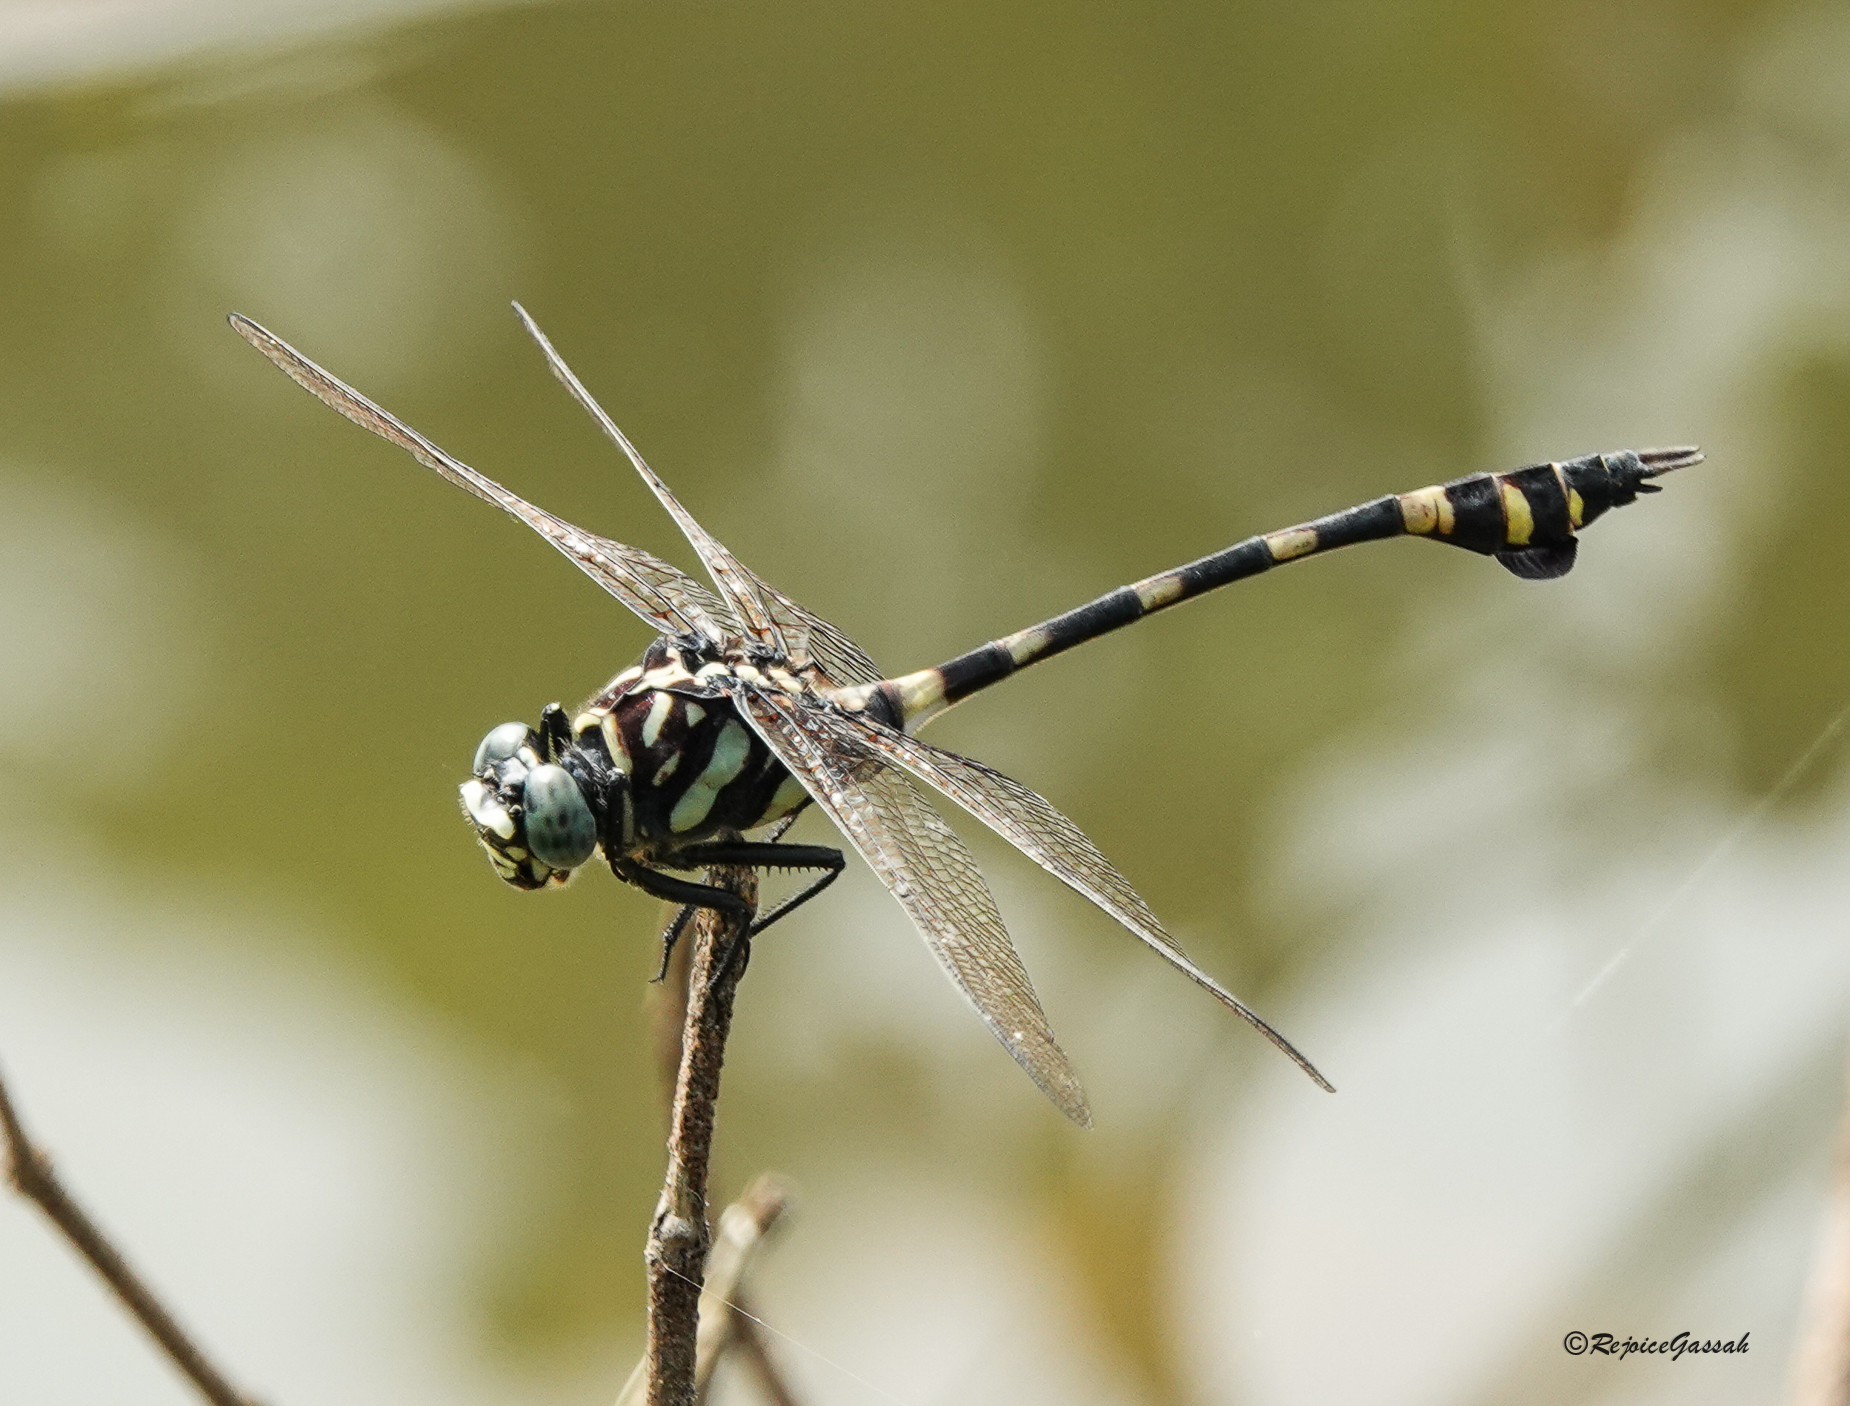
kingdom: Animalia
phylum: Arthropoda
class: Insecta
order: Odonata
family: Gomphidae
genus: Ictinogomphus
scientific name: Ictinogomphus rapax
